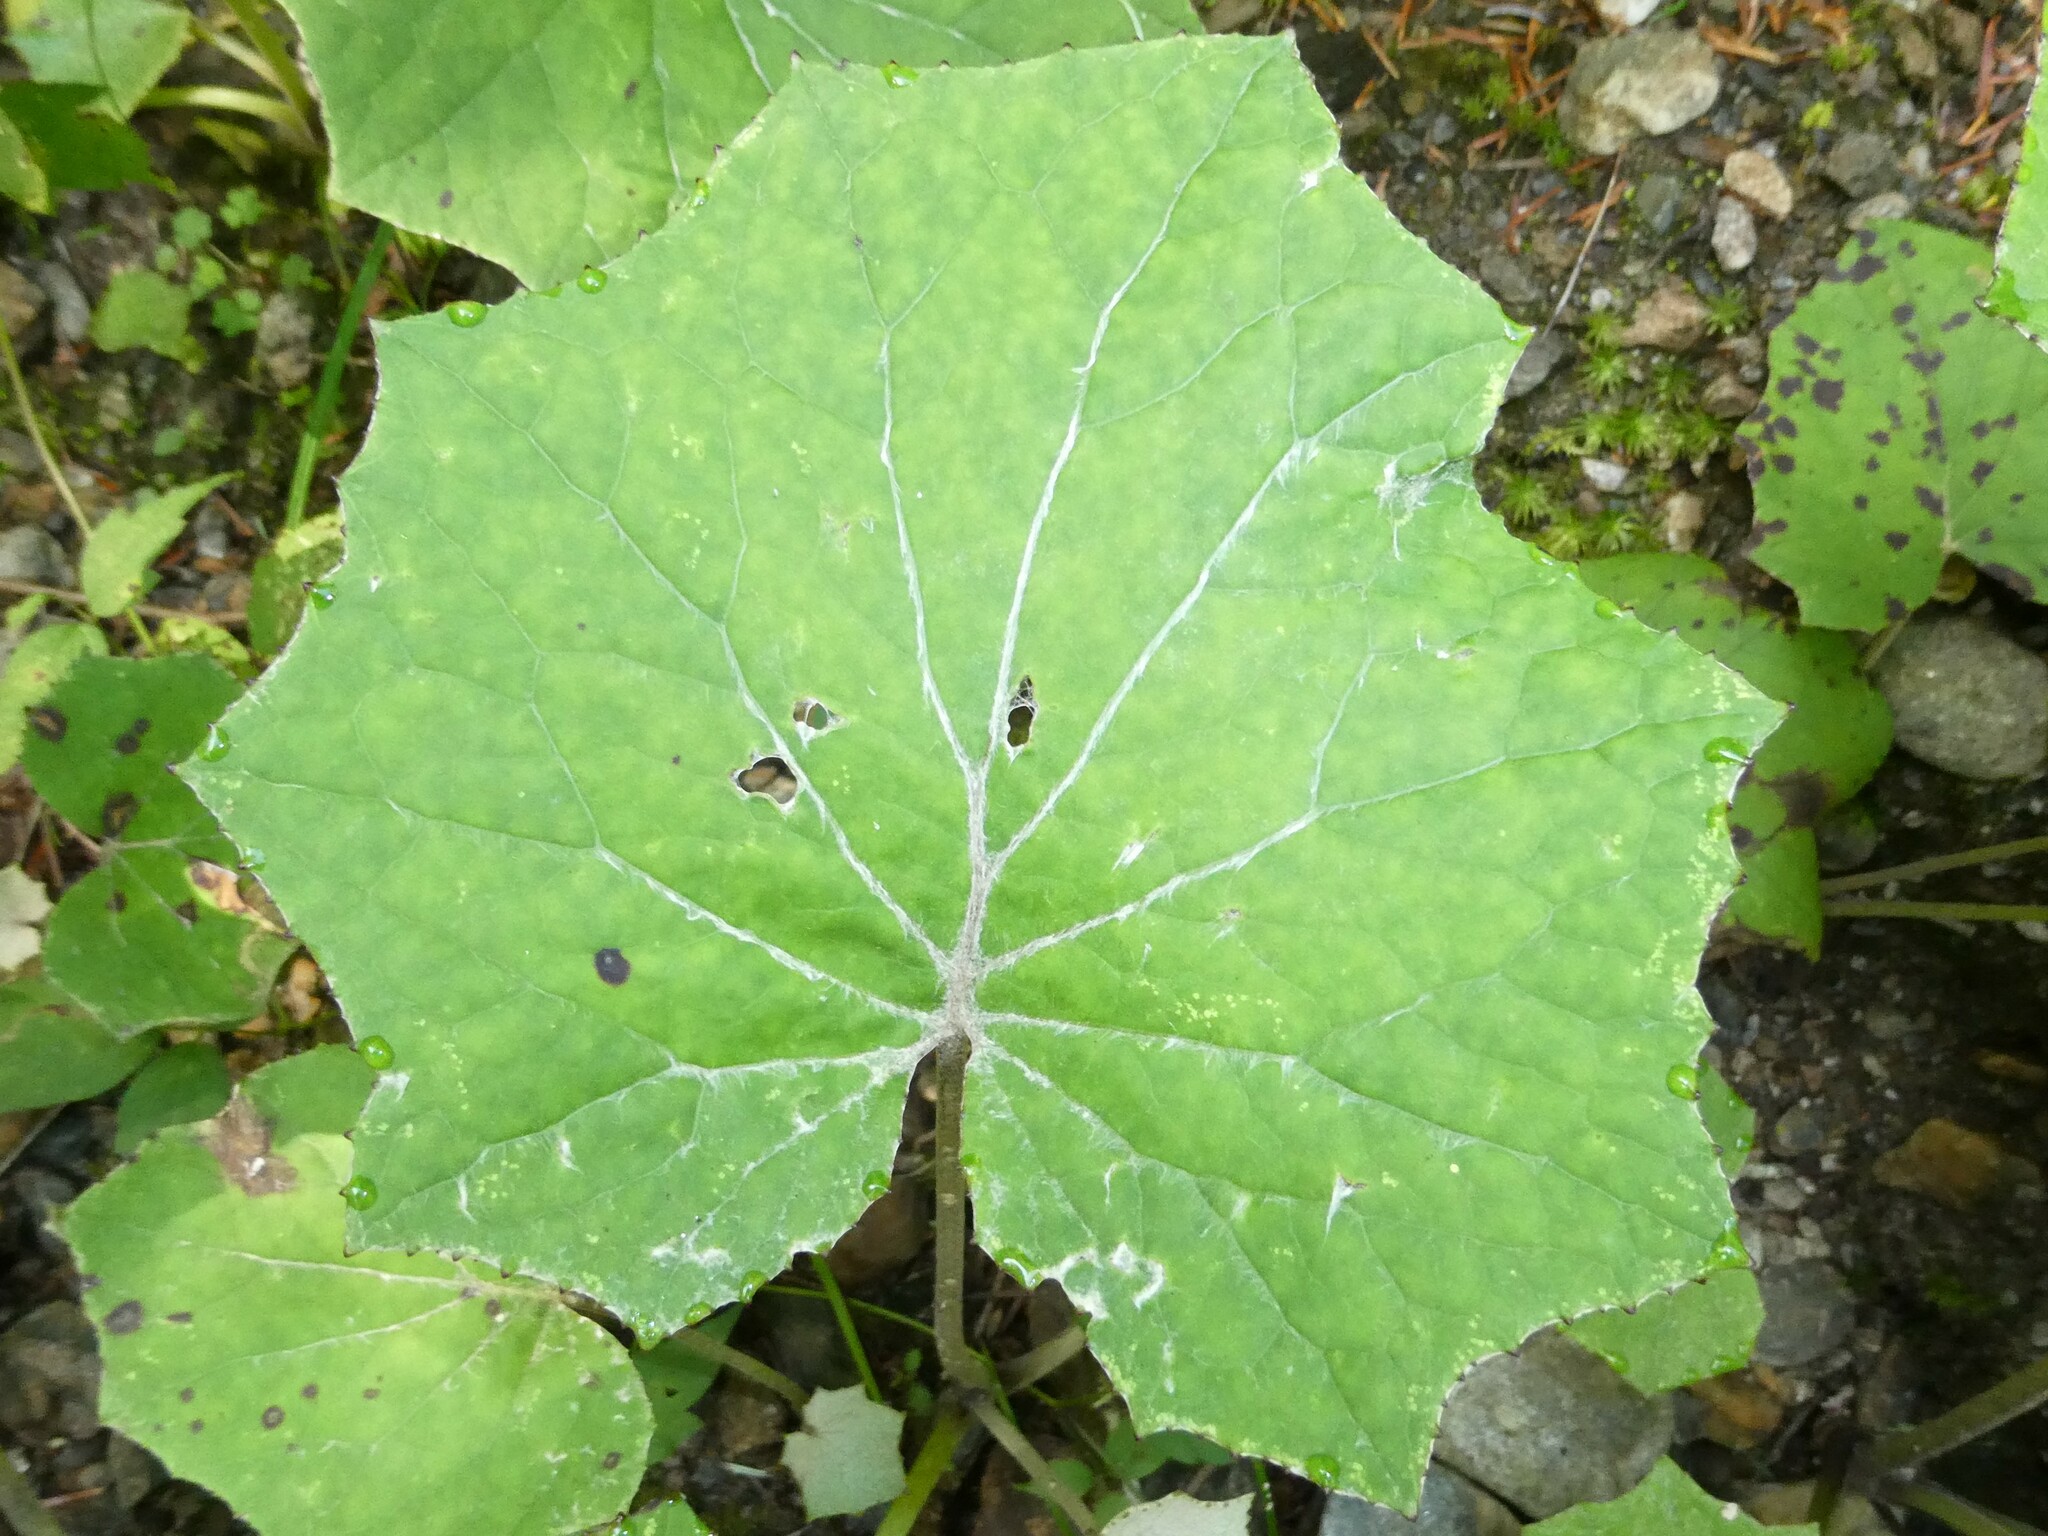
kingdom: Plantae
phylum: Tracheophyta
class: Magnoliopsida
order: Asterales
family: Asteraceae
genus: Tussilago
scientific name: Tussilago farfara
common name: Coltsfoot
